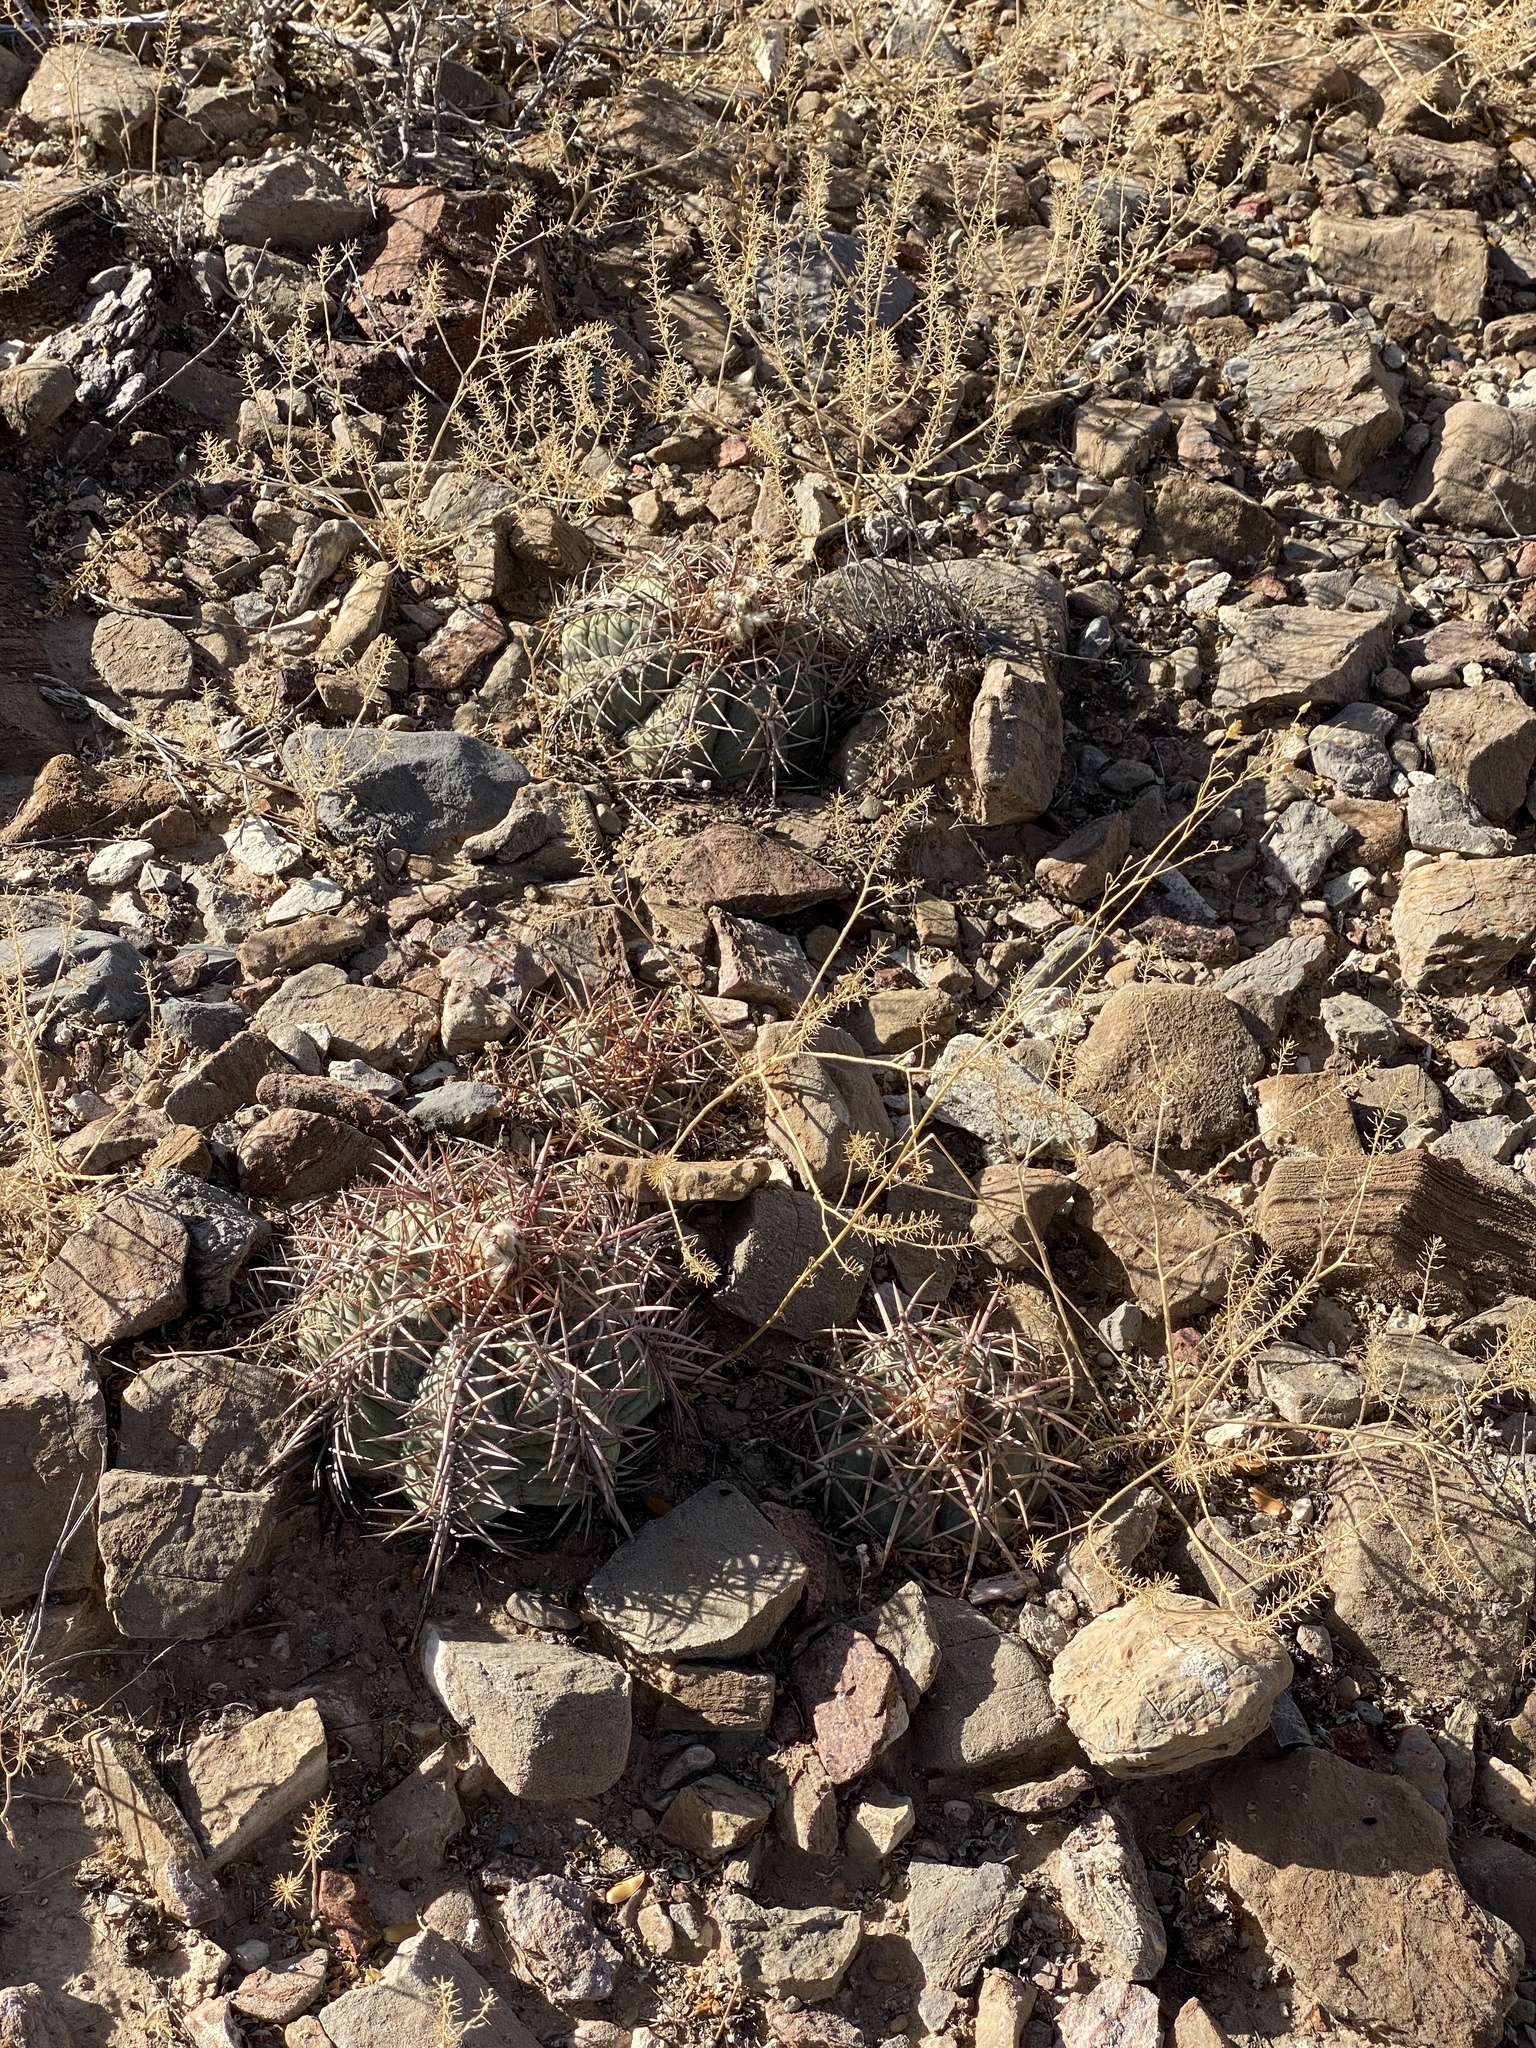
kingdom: Plantae
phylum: Tracheophyta
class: Magnoliopsida
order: Caryophyllales
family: Cactaceae
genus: Echinocactus
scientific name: Echinocactus horizonthalonius
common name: Devilshead
